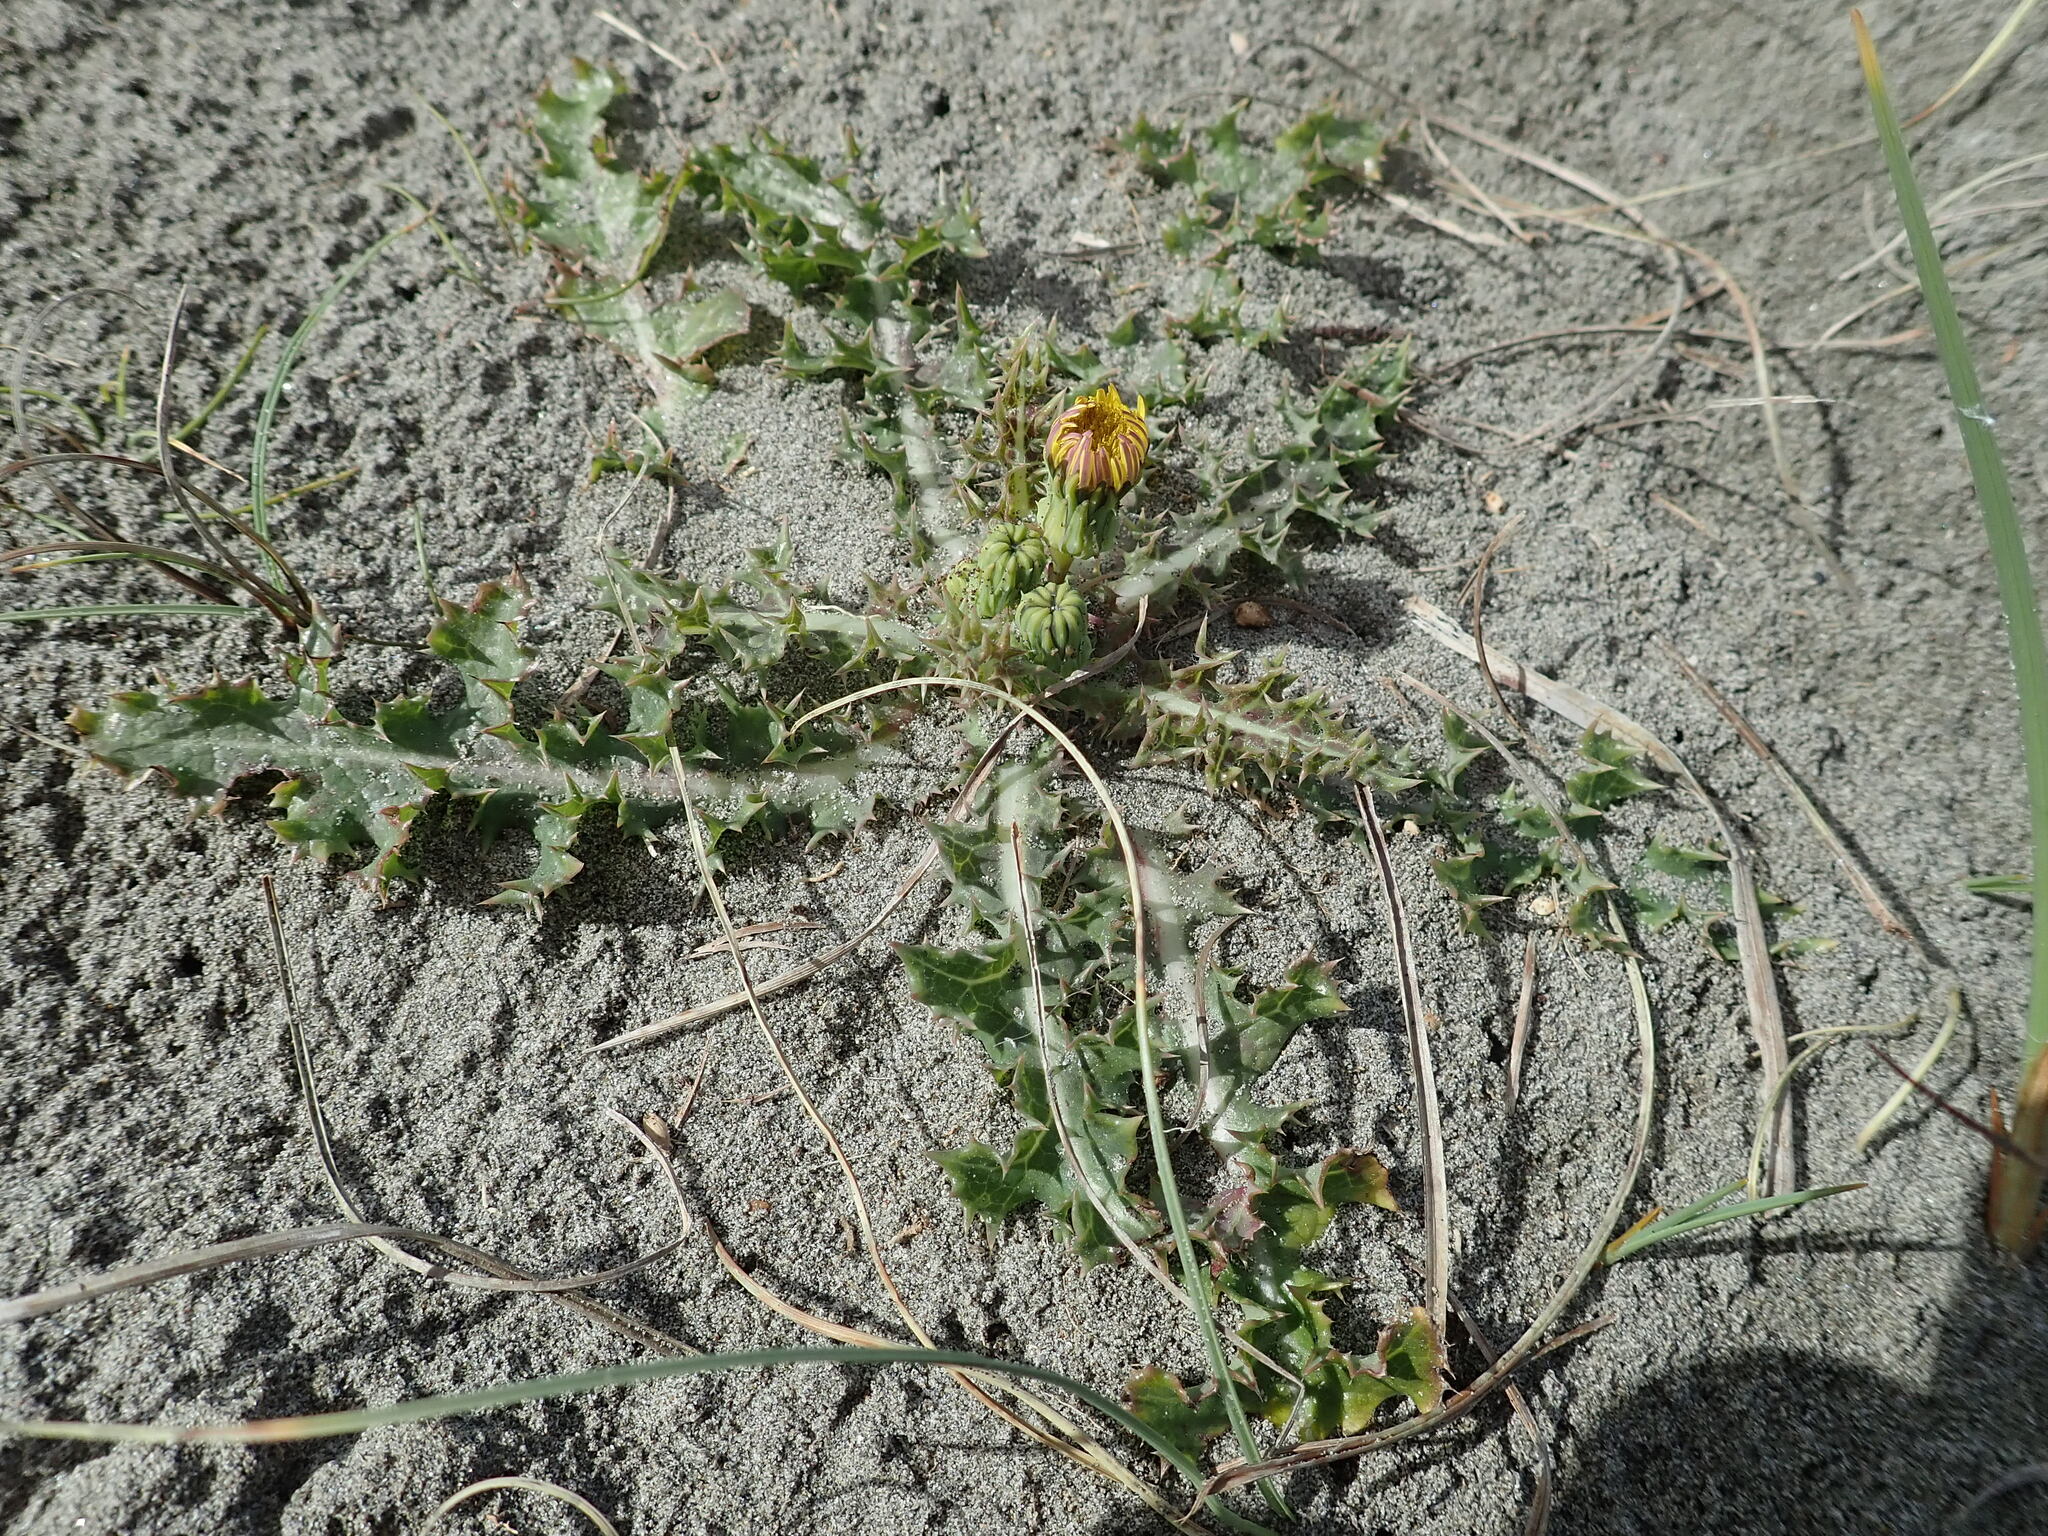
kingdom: Plantae
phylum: Tracheophyta
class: Magnoliopsida
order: Asterales
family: Asteraceae
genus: Sonchus
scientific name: Sonchus asper
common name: Prickly sow-thistle
